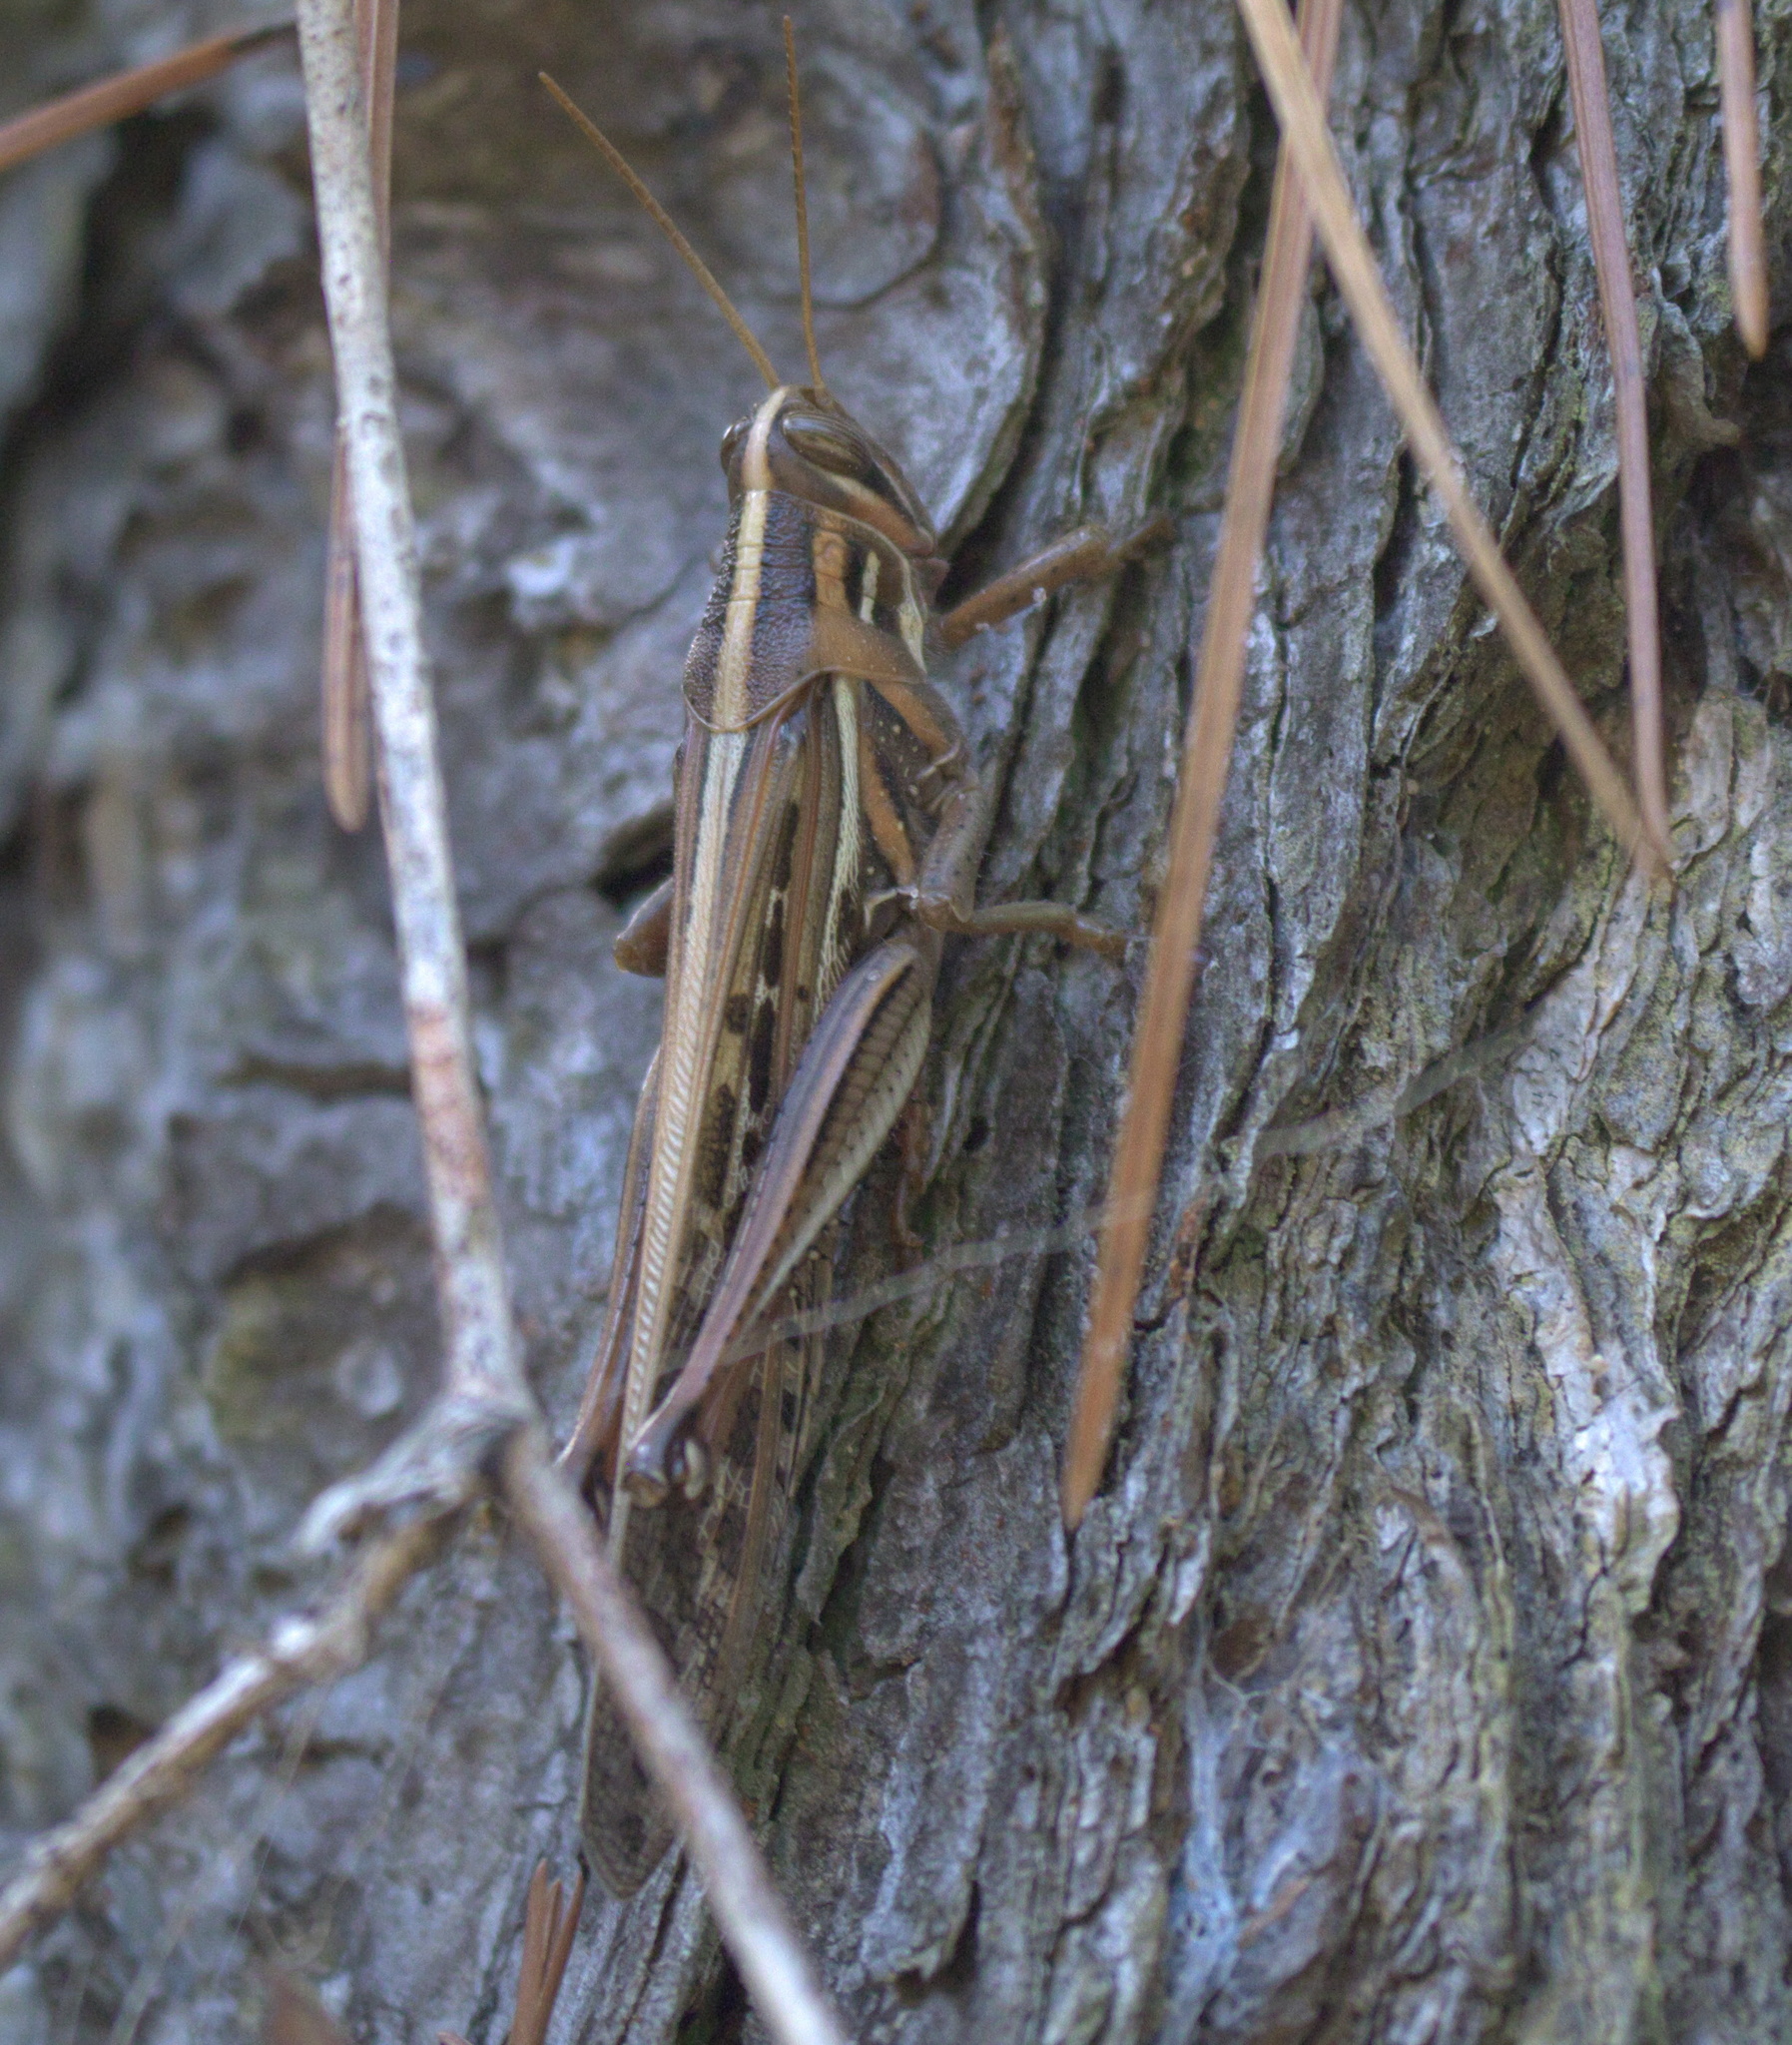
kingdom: Animalia
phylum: Arthropoda
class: Insecta
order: Orthoptera
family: Acrididae
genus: Schistocerca
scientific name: Schistocerca americana
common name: American bird locust
